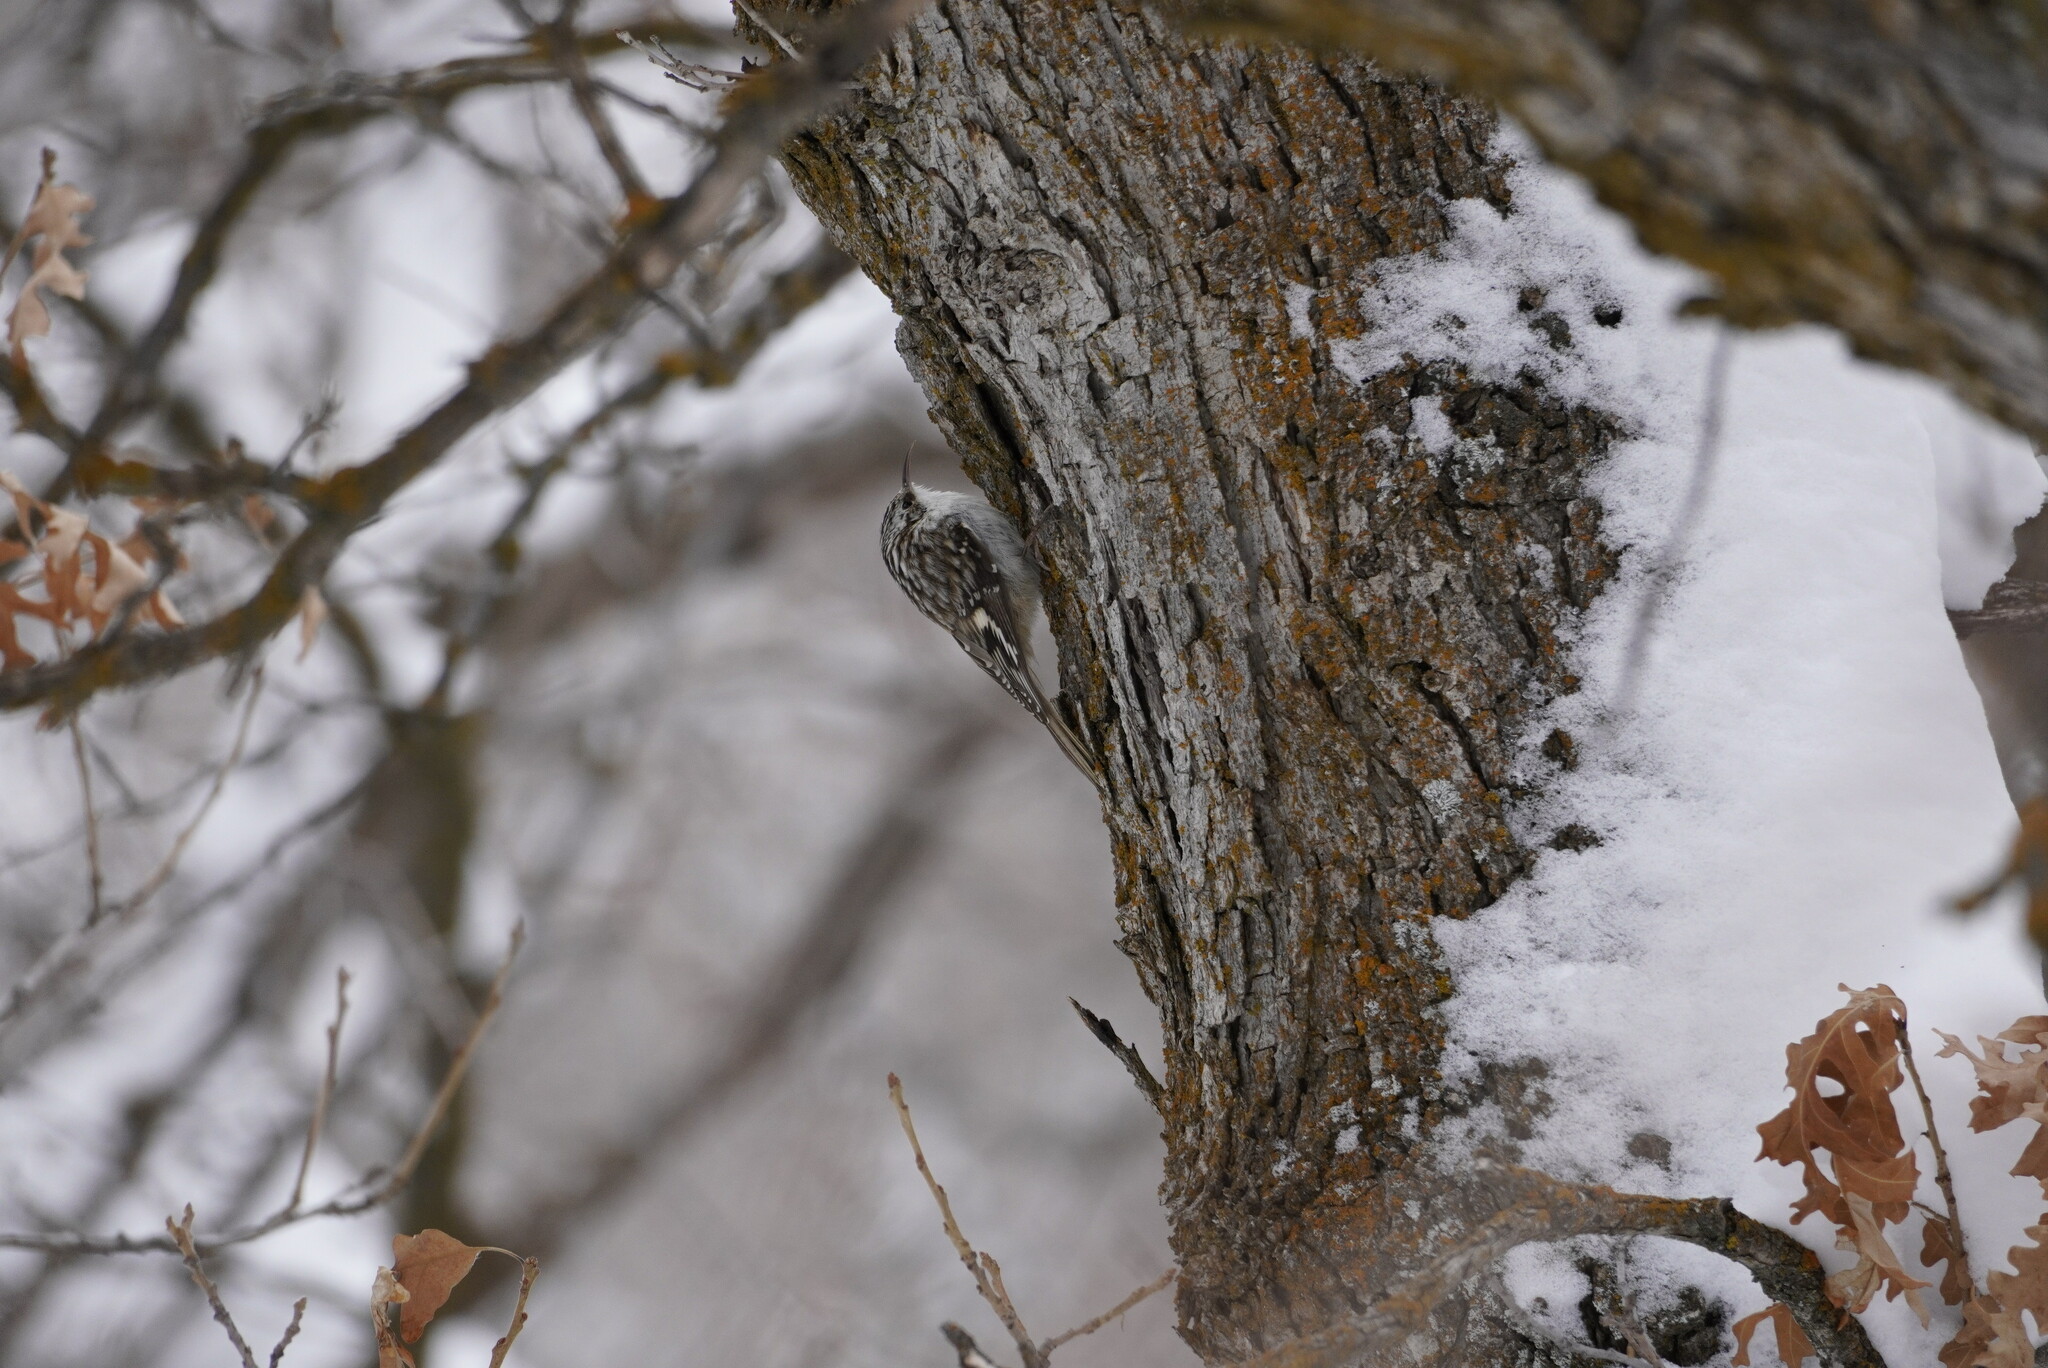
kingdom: Animalia
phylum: Chordata
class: Aves
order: Passeriformes
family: Certhiidae
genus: Certhia
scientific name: Certhia americana
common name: Brown creeper
